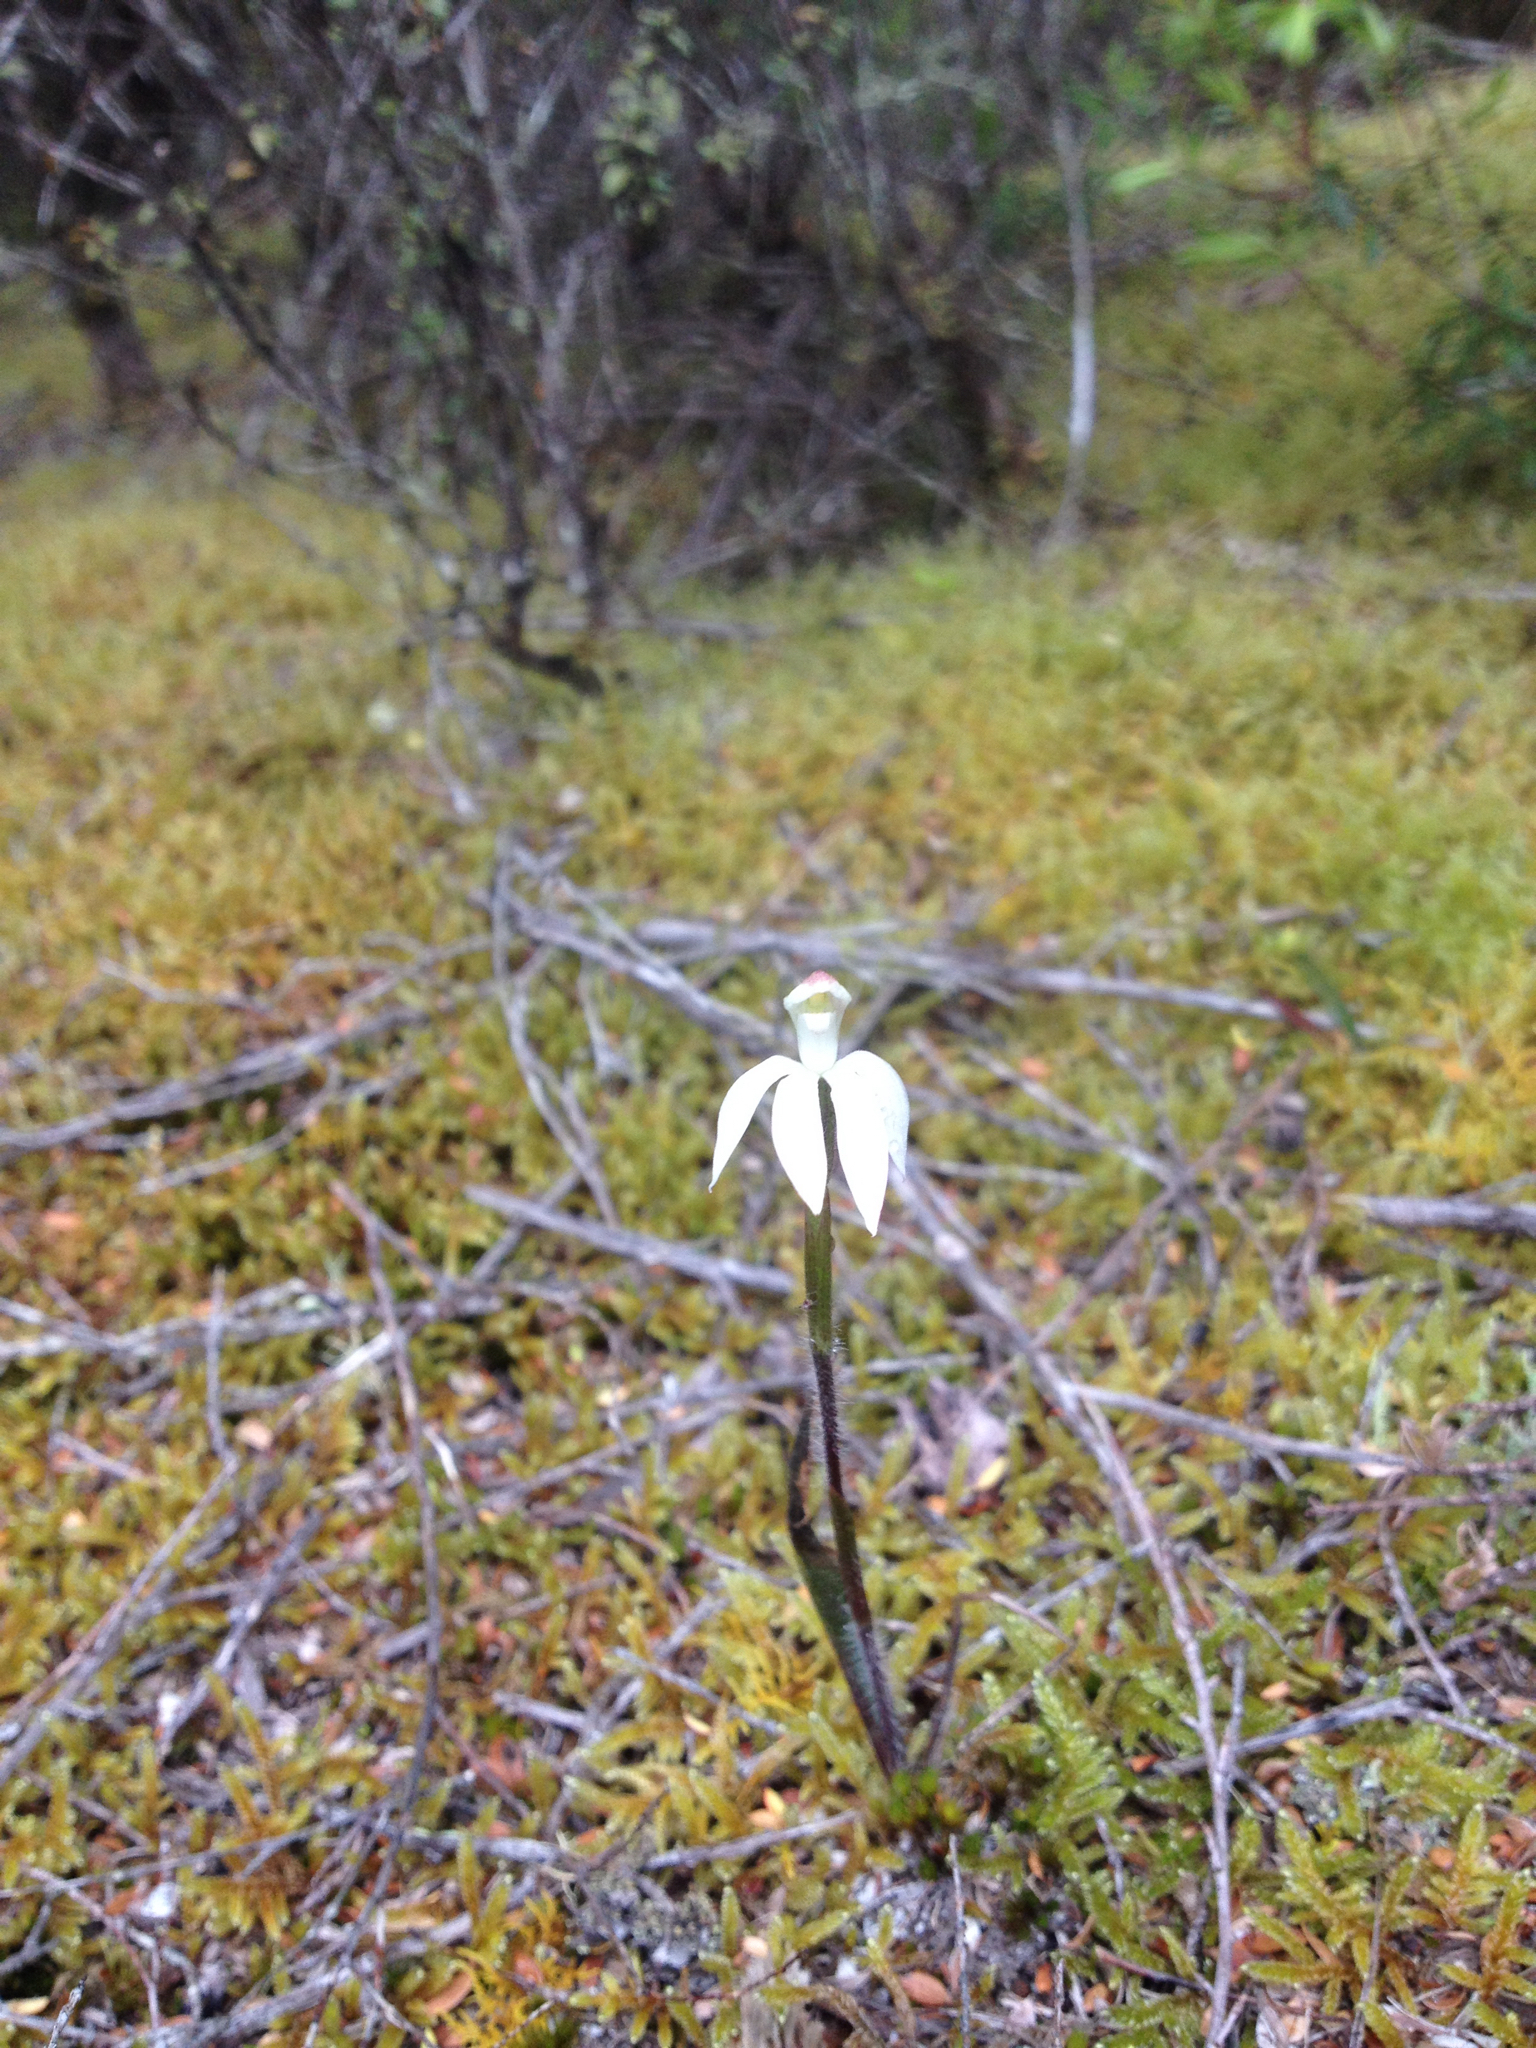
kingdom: Plantae
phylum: Tracheophyta
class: Liliopsida
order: Asparagales
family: Orchidaceae
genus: Caladenia
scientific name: Caladenia lyallii
